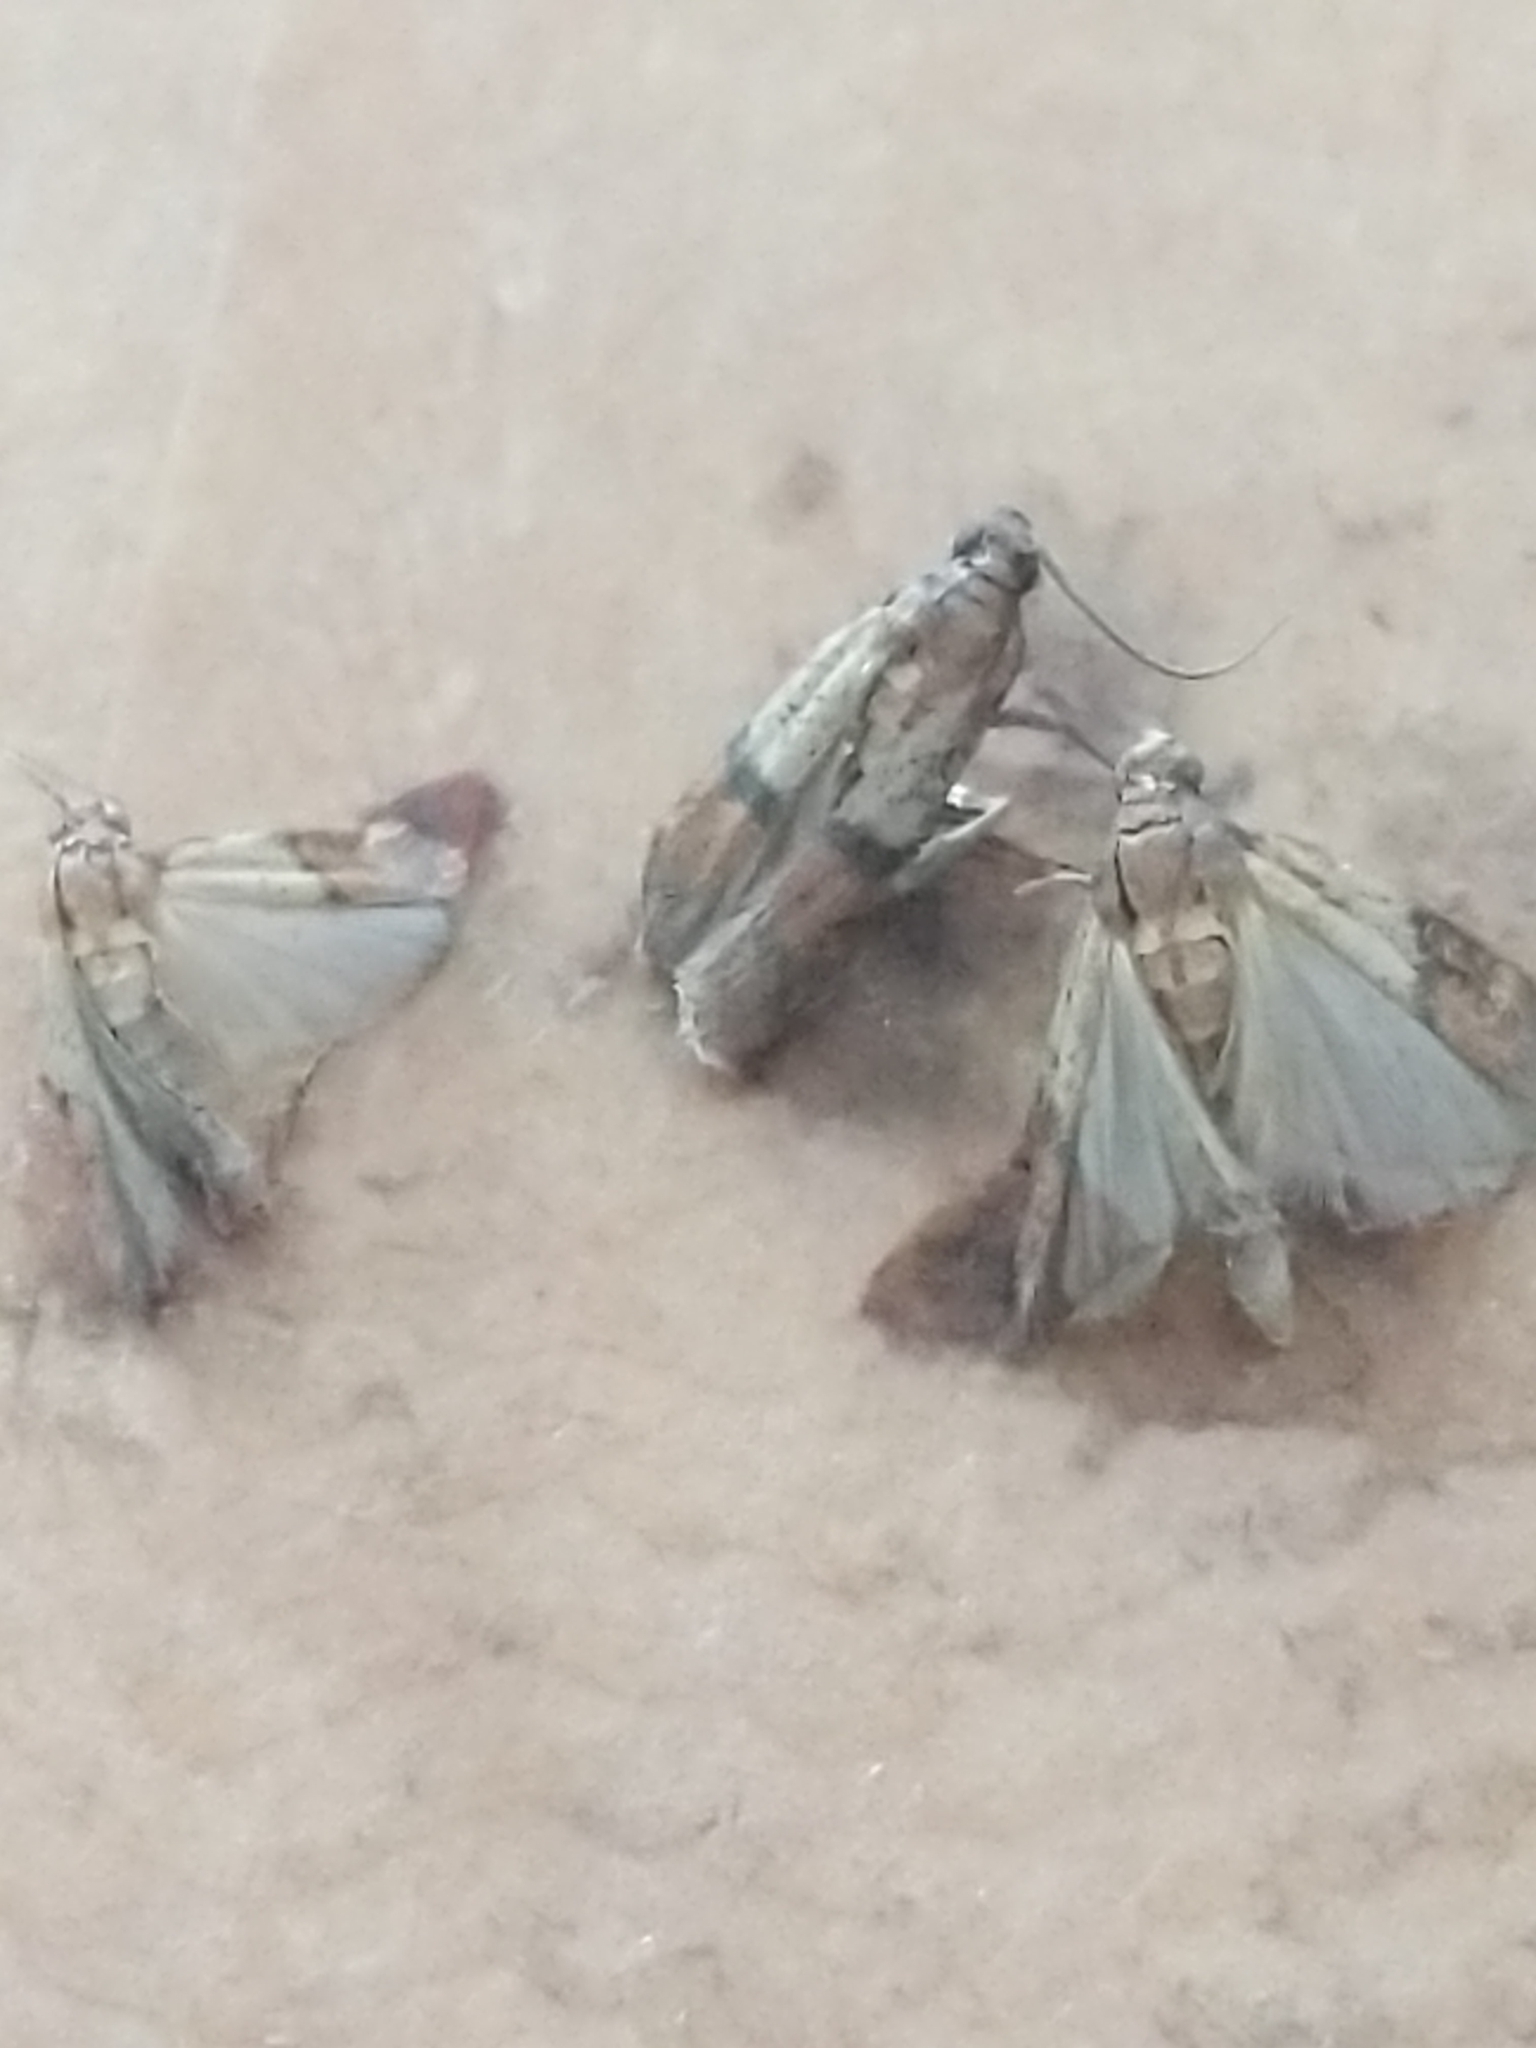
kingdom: Animalia
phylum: Arthropoda
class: Insecta
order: Lepidoptera
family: Pyralidae
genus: Plodia
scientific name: Plodia interpunctella
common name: Indian meal moth
